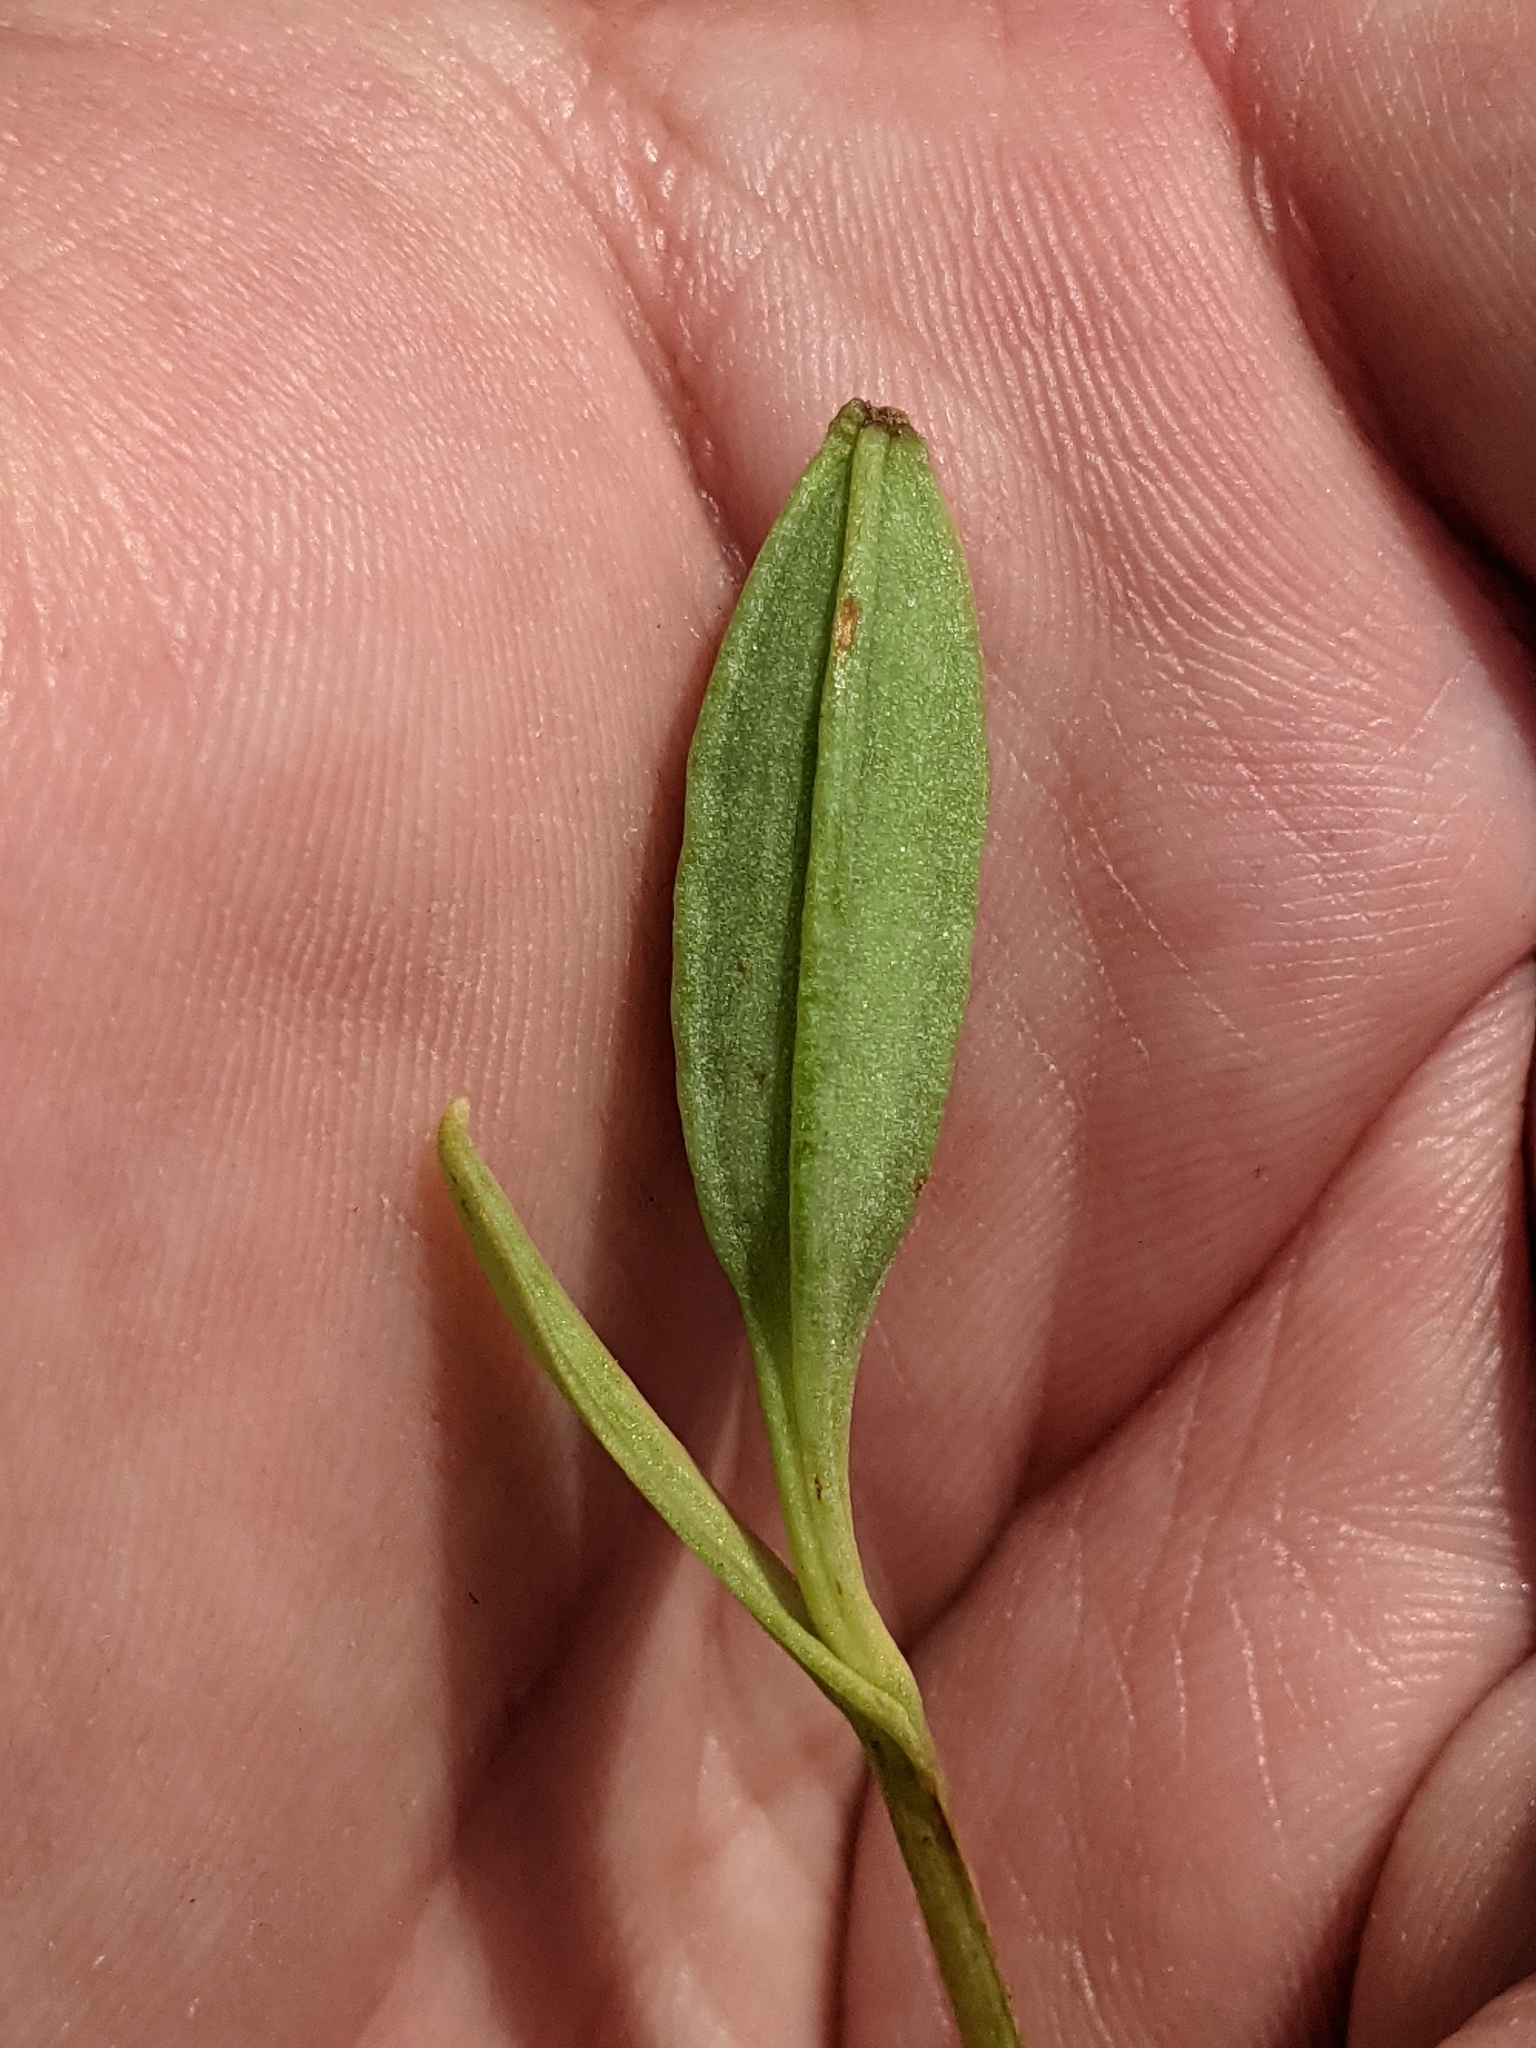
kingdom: Plantae
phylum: Tracheophyta
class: Liliopsida
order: Asparagales
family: Orchidaceae
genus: Pogonia
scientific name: Pogonia ophioglossoides
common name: Rose pogonia
